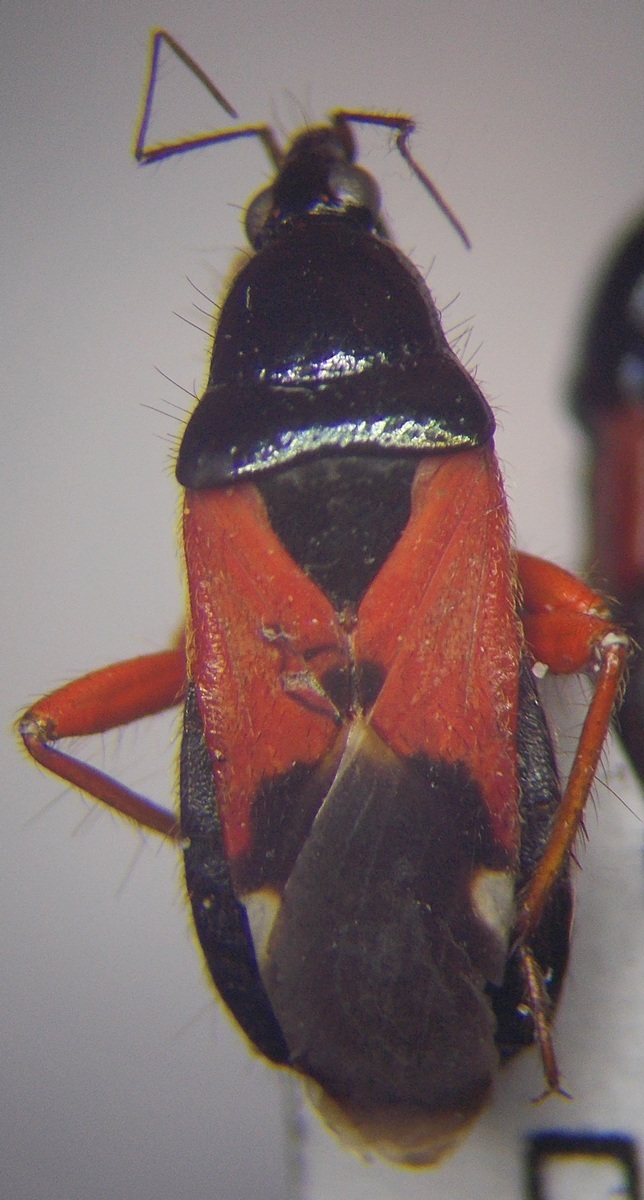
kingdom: Animalia
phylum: Arthropoda
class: Insecta
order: Hemiptera
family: Nabidae
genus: Prostemma
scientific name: Prostemma guttula
